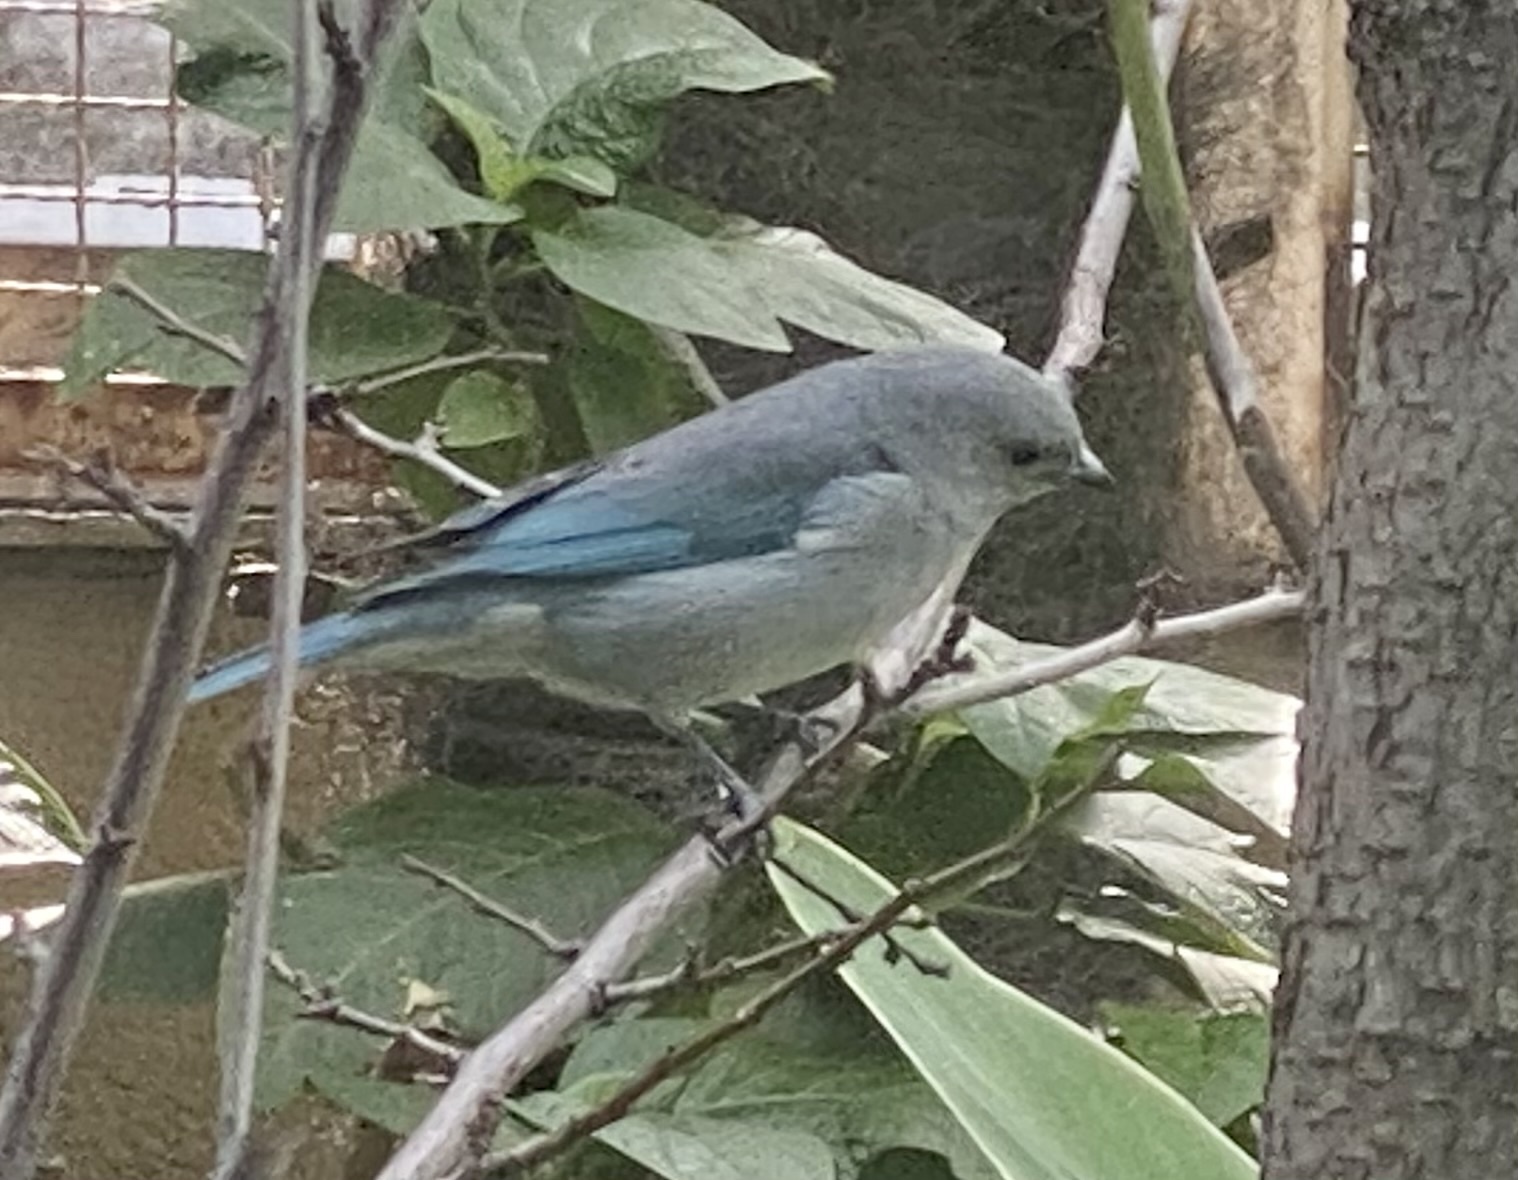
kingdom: Animalia
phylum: Chordata
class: Aves
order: Passeriformes
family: Thraupidae
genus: Thraupis
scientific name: Thraupis sayaca
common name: Sayaca tanager
